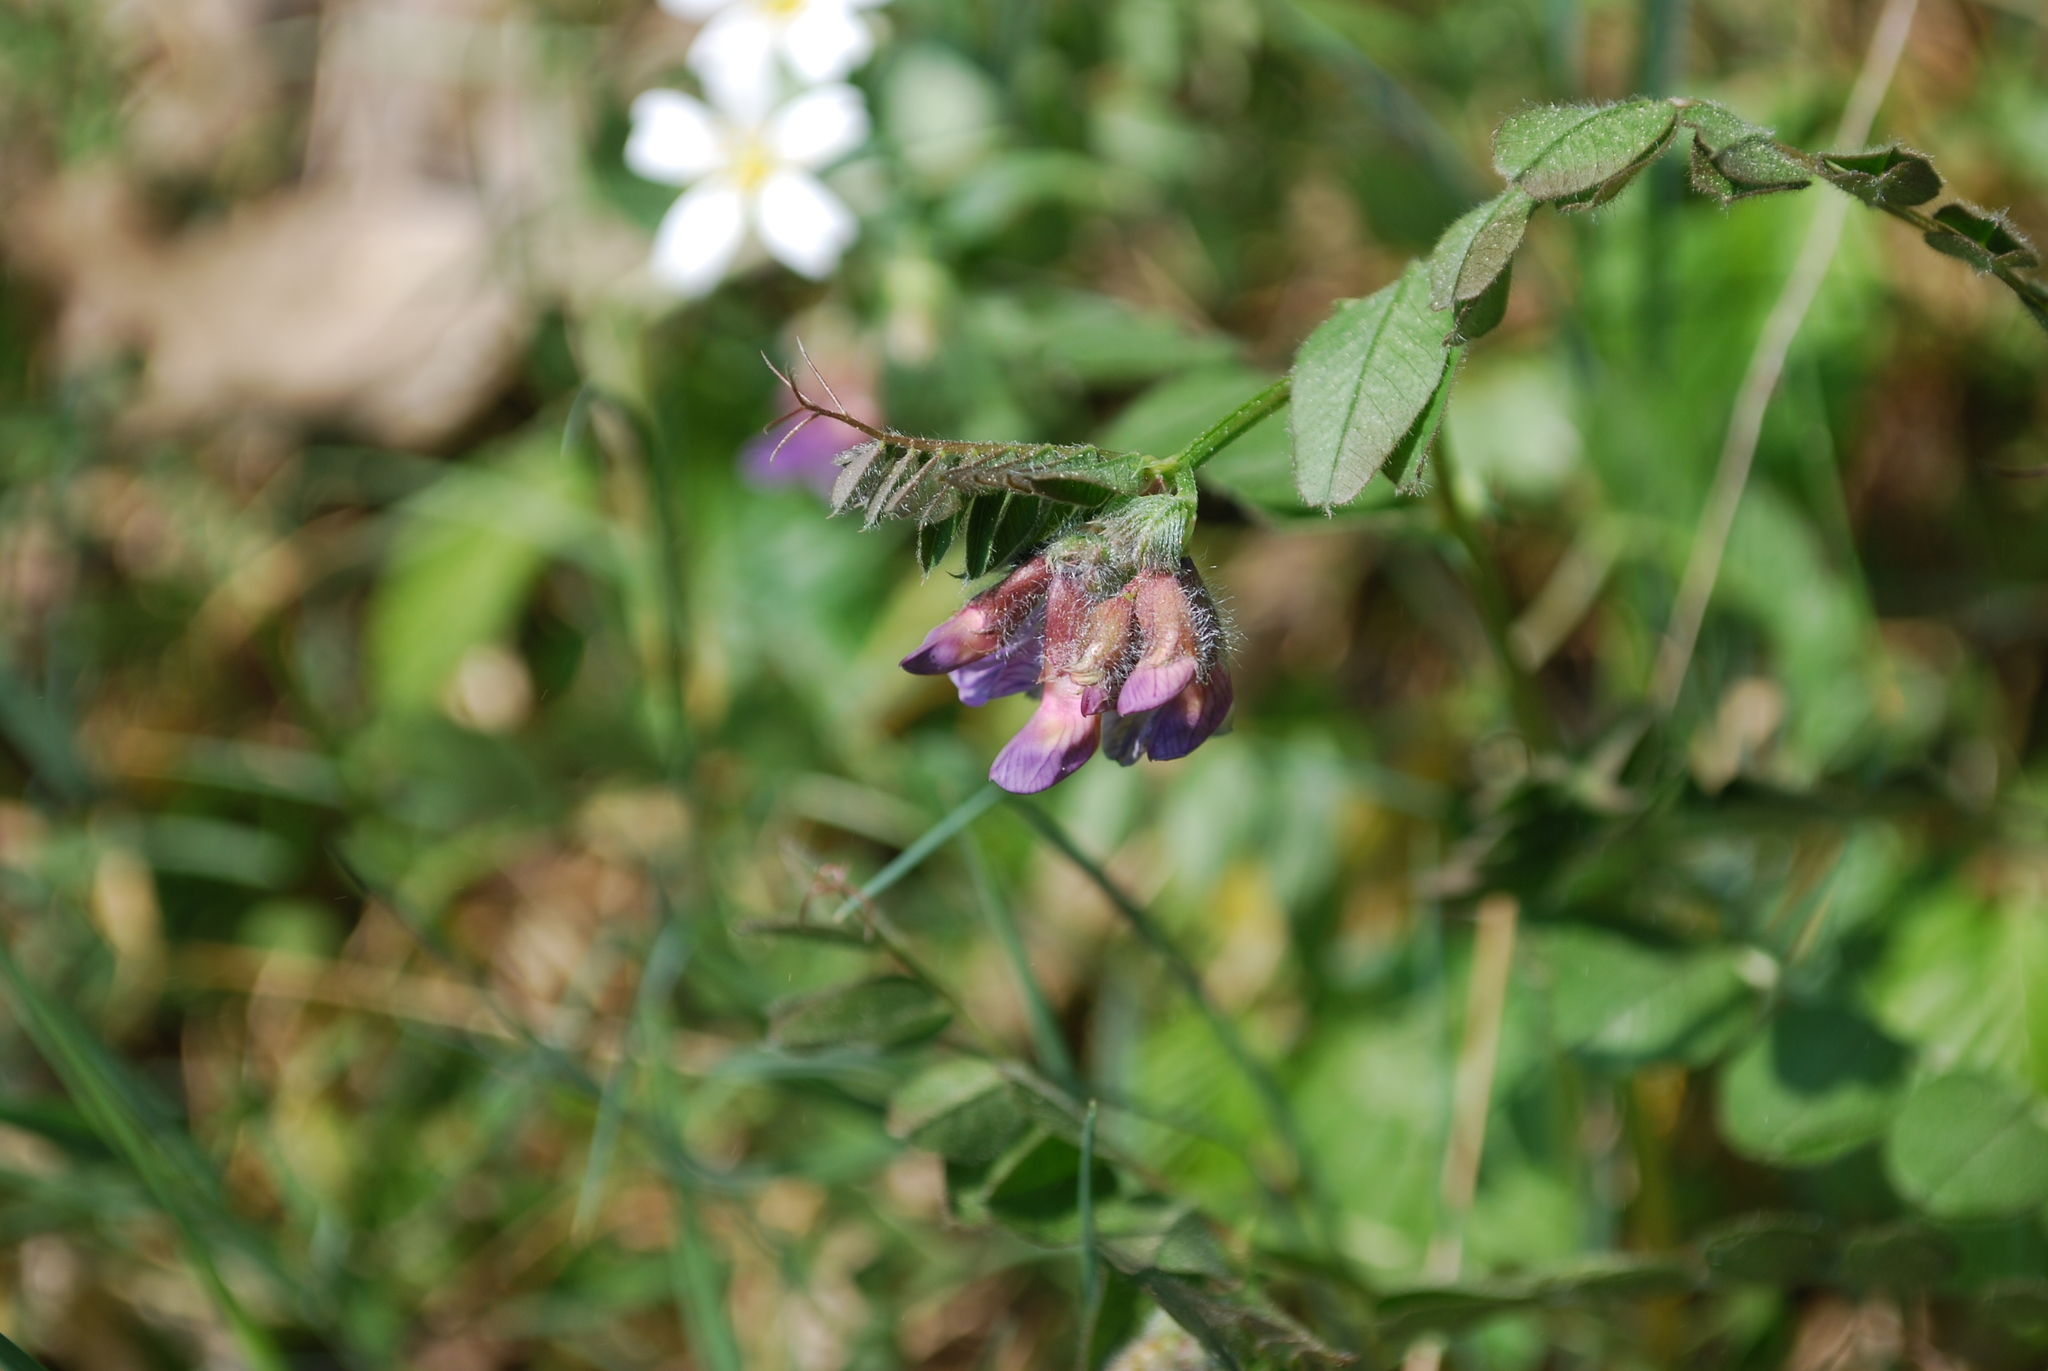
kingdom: Plantae
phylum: Tracheophyta
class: Magnoliopsida
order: Fabales
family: Fabaceae
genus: Vicia
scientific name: Vicia sepium
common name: Bush vetch
